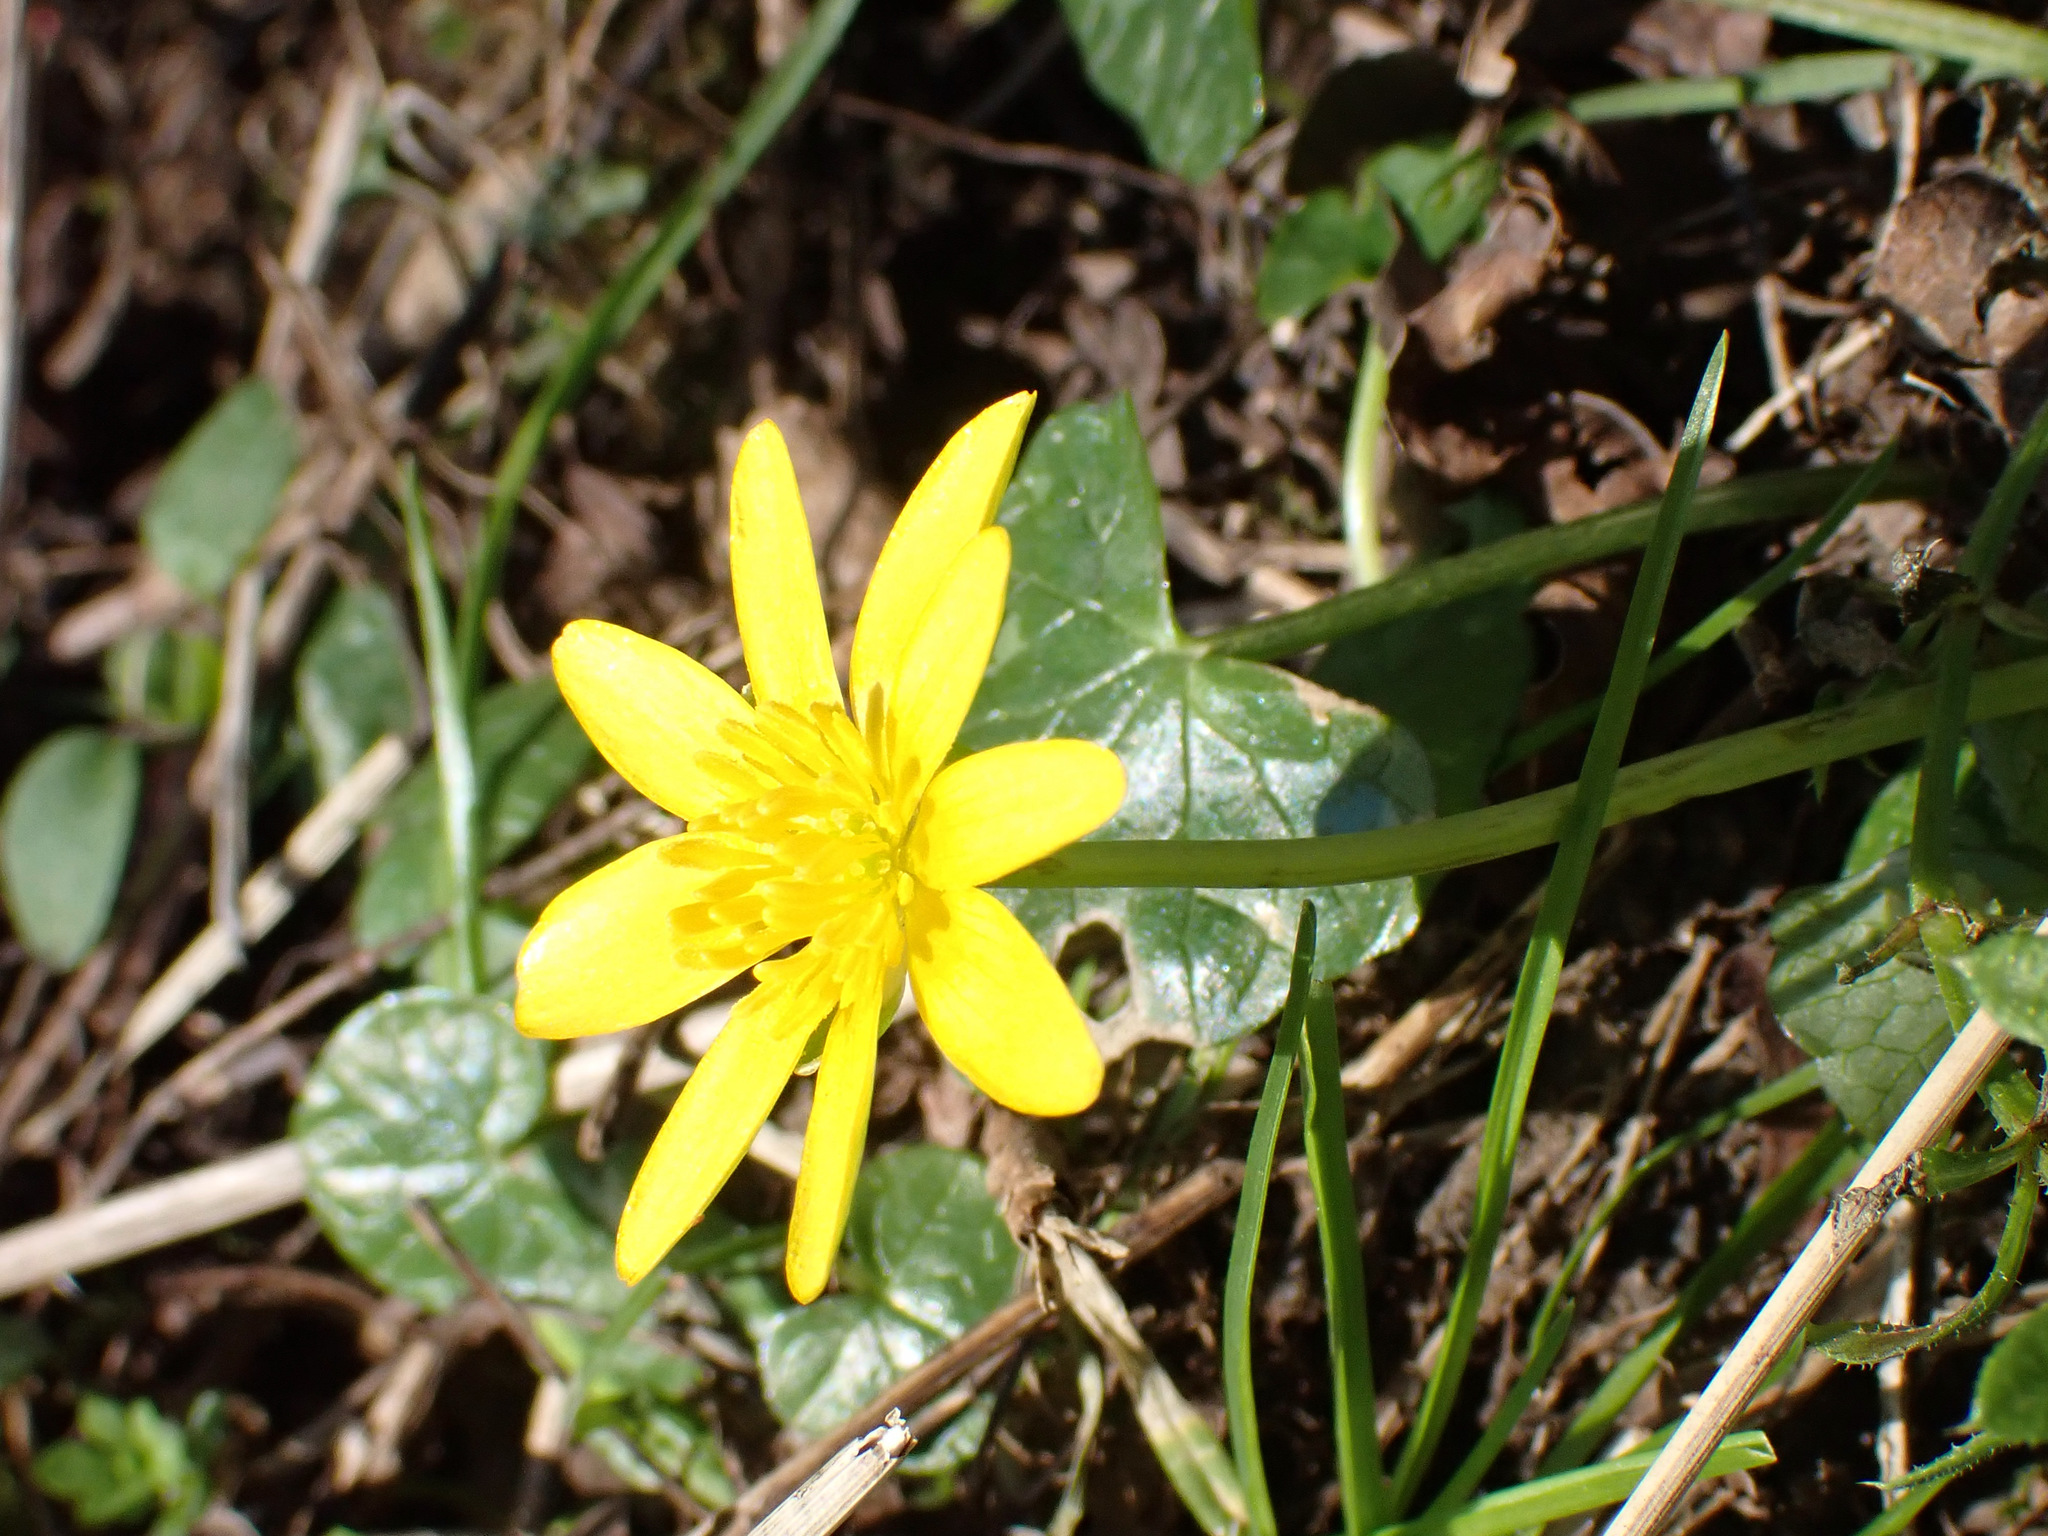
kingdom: Plantae
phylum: Tracheophyta
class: Magnoliopsida
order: Ranunculales
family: Ranunculaceae
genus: Ficaria
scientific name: Ficaria verna
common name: Lesser celandine
